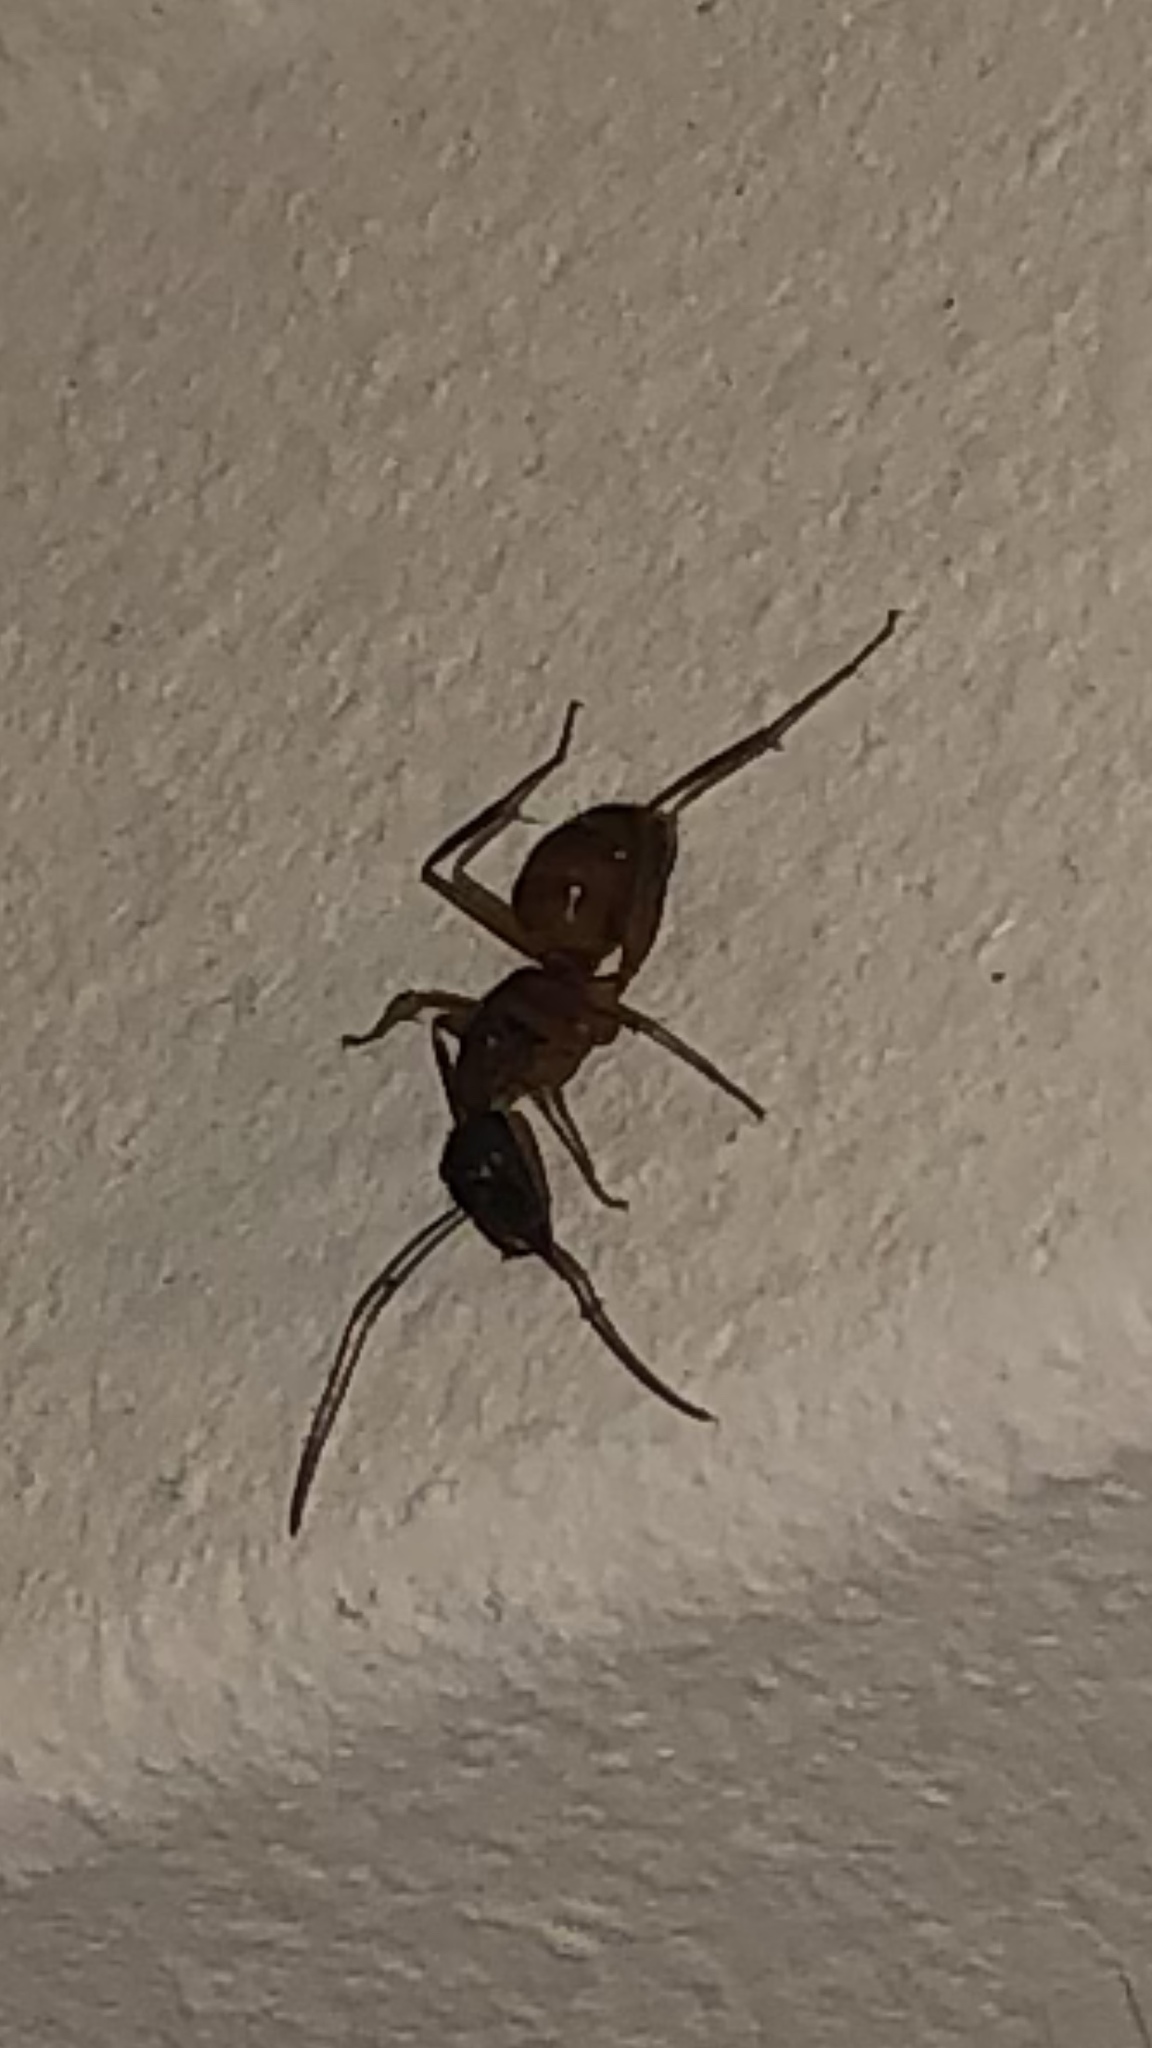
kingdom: Animalia
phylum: Arthropoda
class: Insecta
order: Hymenoptera
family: Formicidae
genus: Camponotus
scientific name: Camponotus americanus
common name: American carpenter ant
